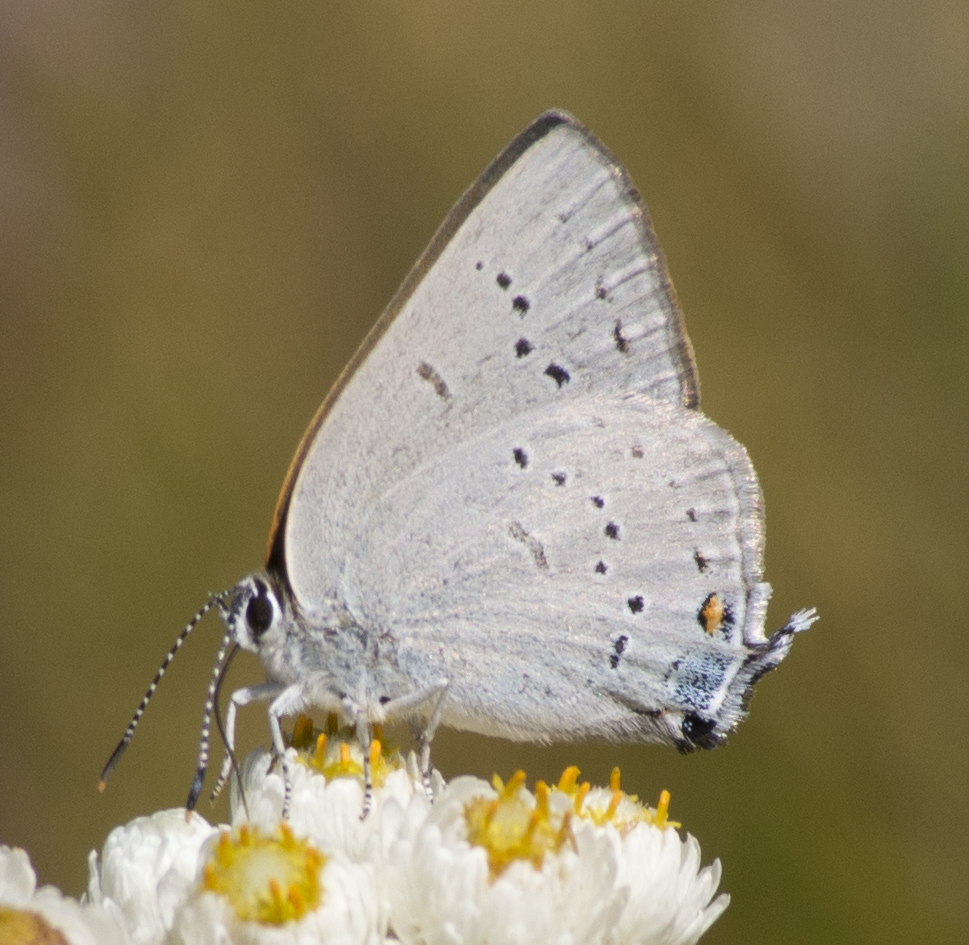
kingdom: Animalia
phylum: Arthropoda
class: Insecta
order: Lepidoptera
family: Lycaenidae
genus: Strymon
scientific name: Strymon sylvinus
